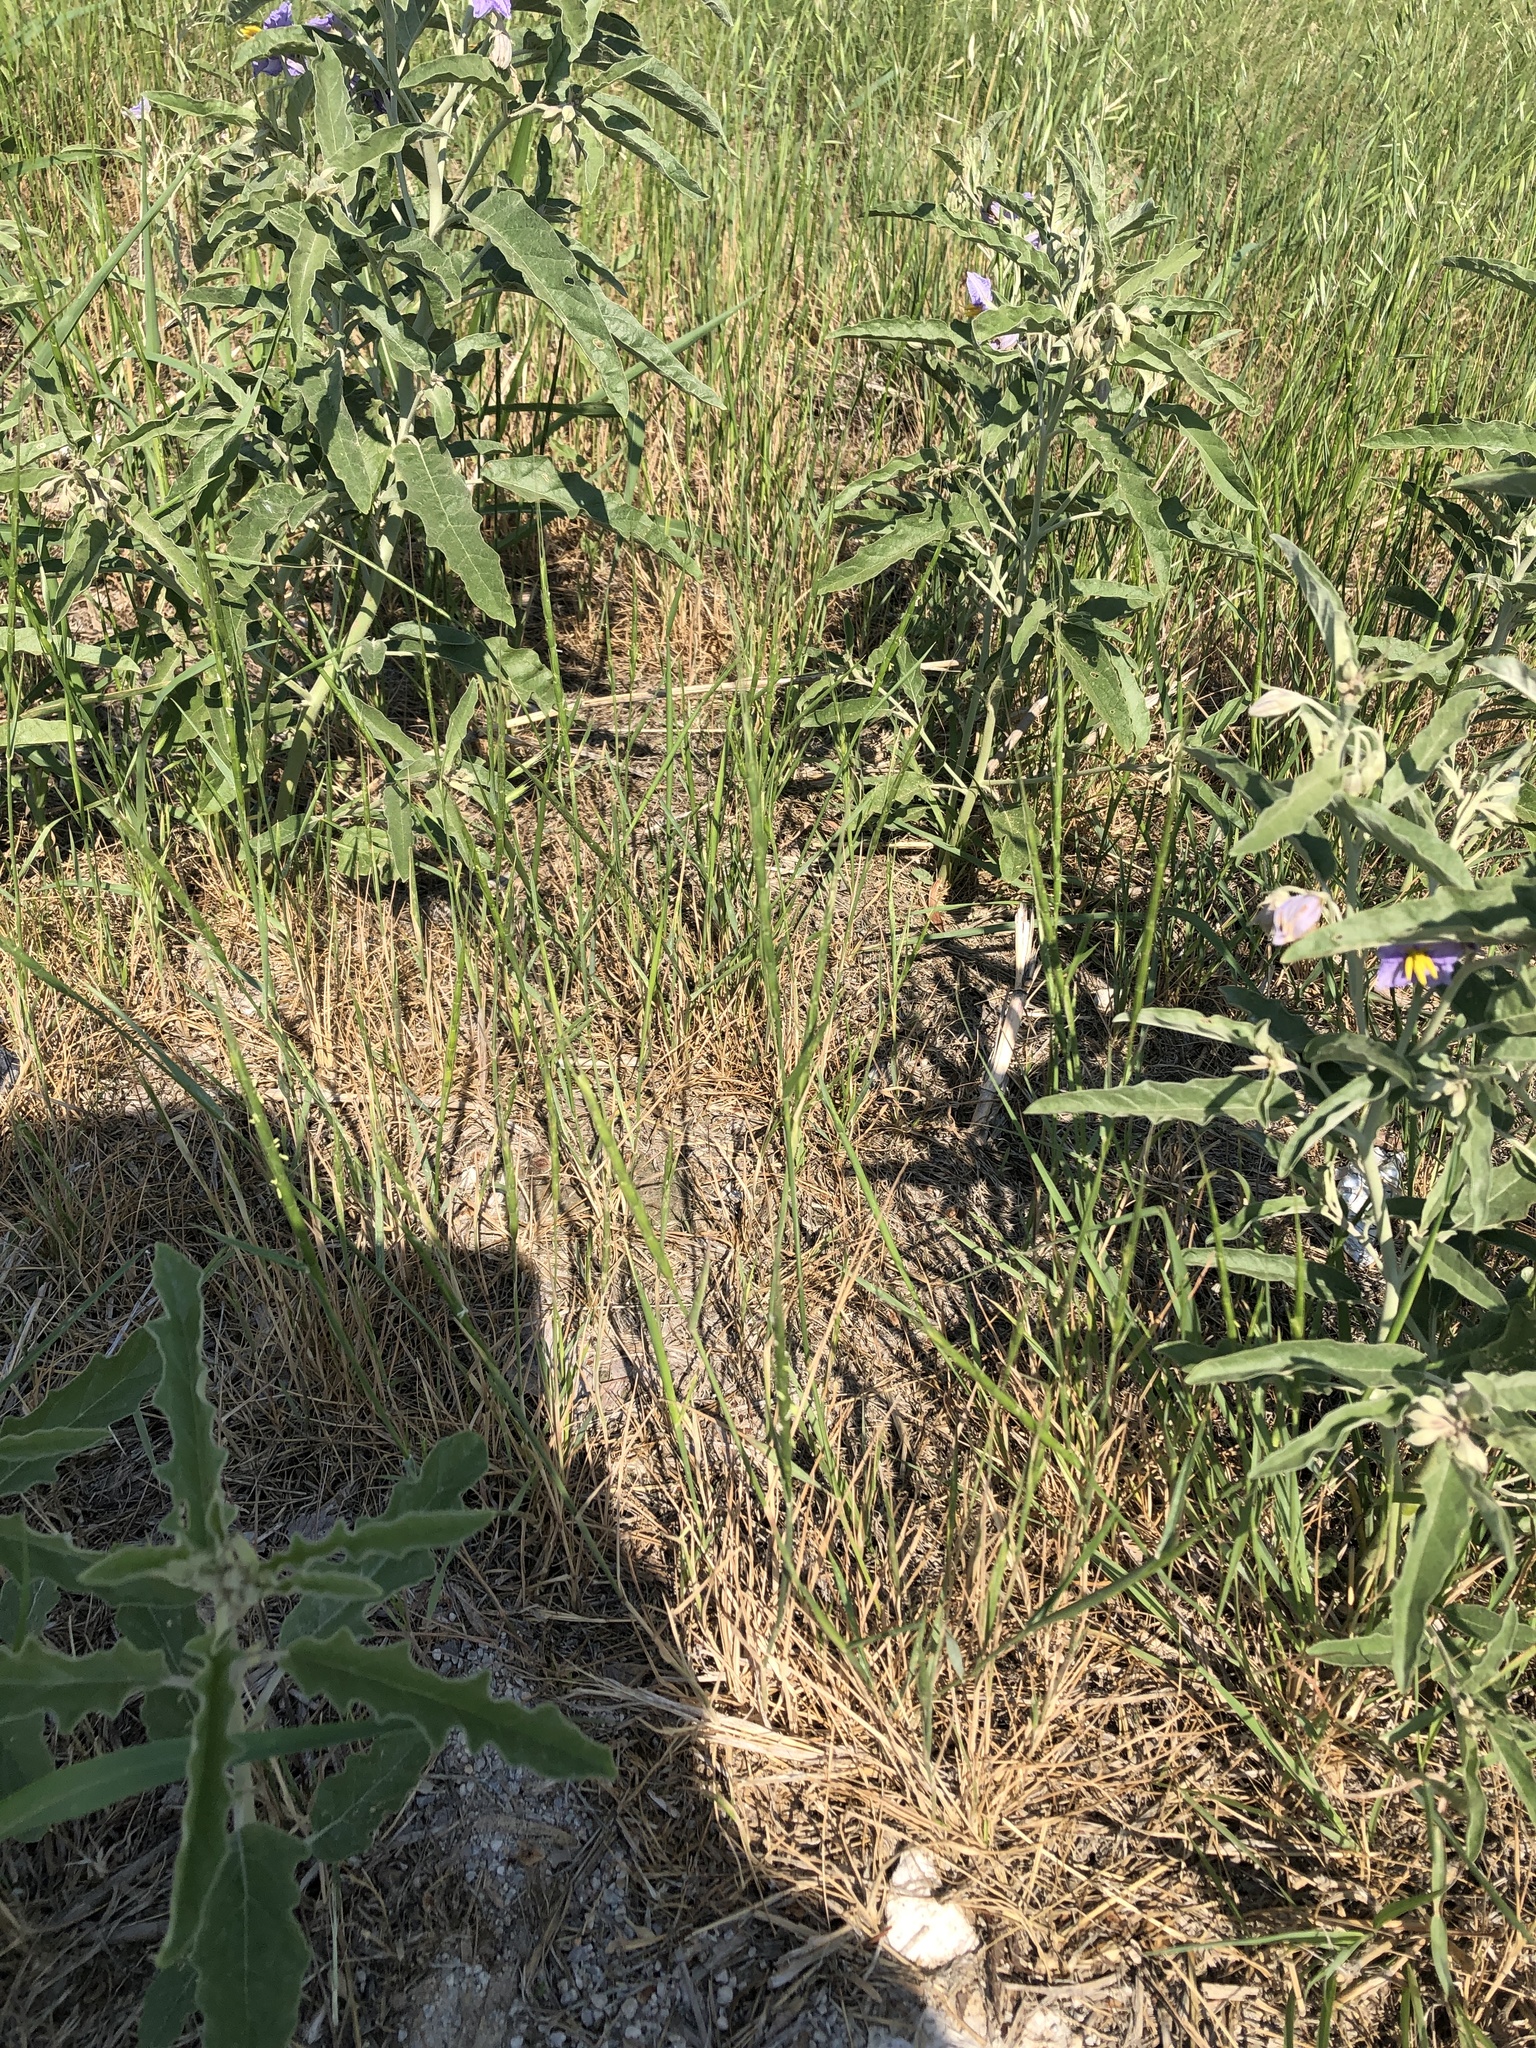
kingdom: Plantae
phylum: Tracheophyta
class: Liliopsida
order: Poales
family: Poaceae
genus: Aegilops
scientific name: Aegilops cylindrica
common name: Jointed goatgrass
